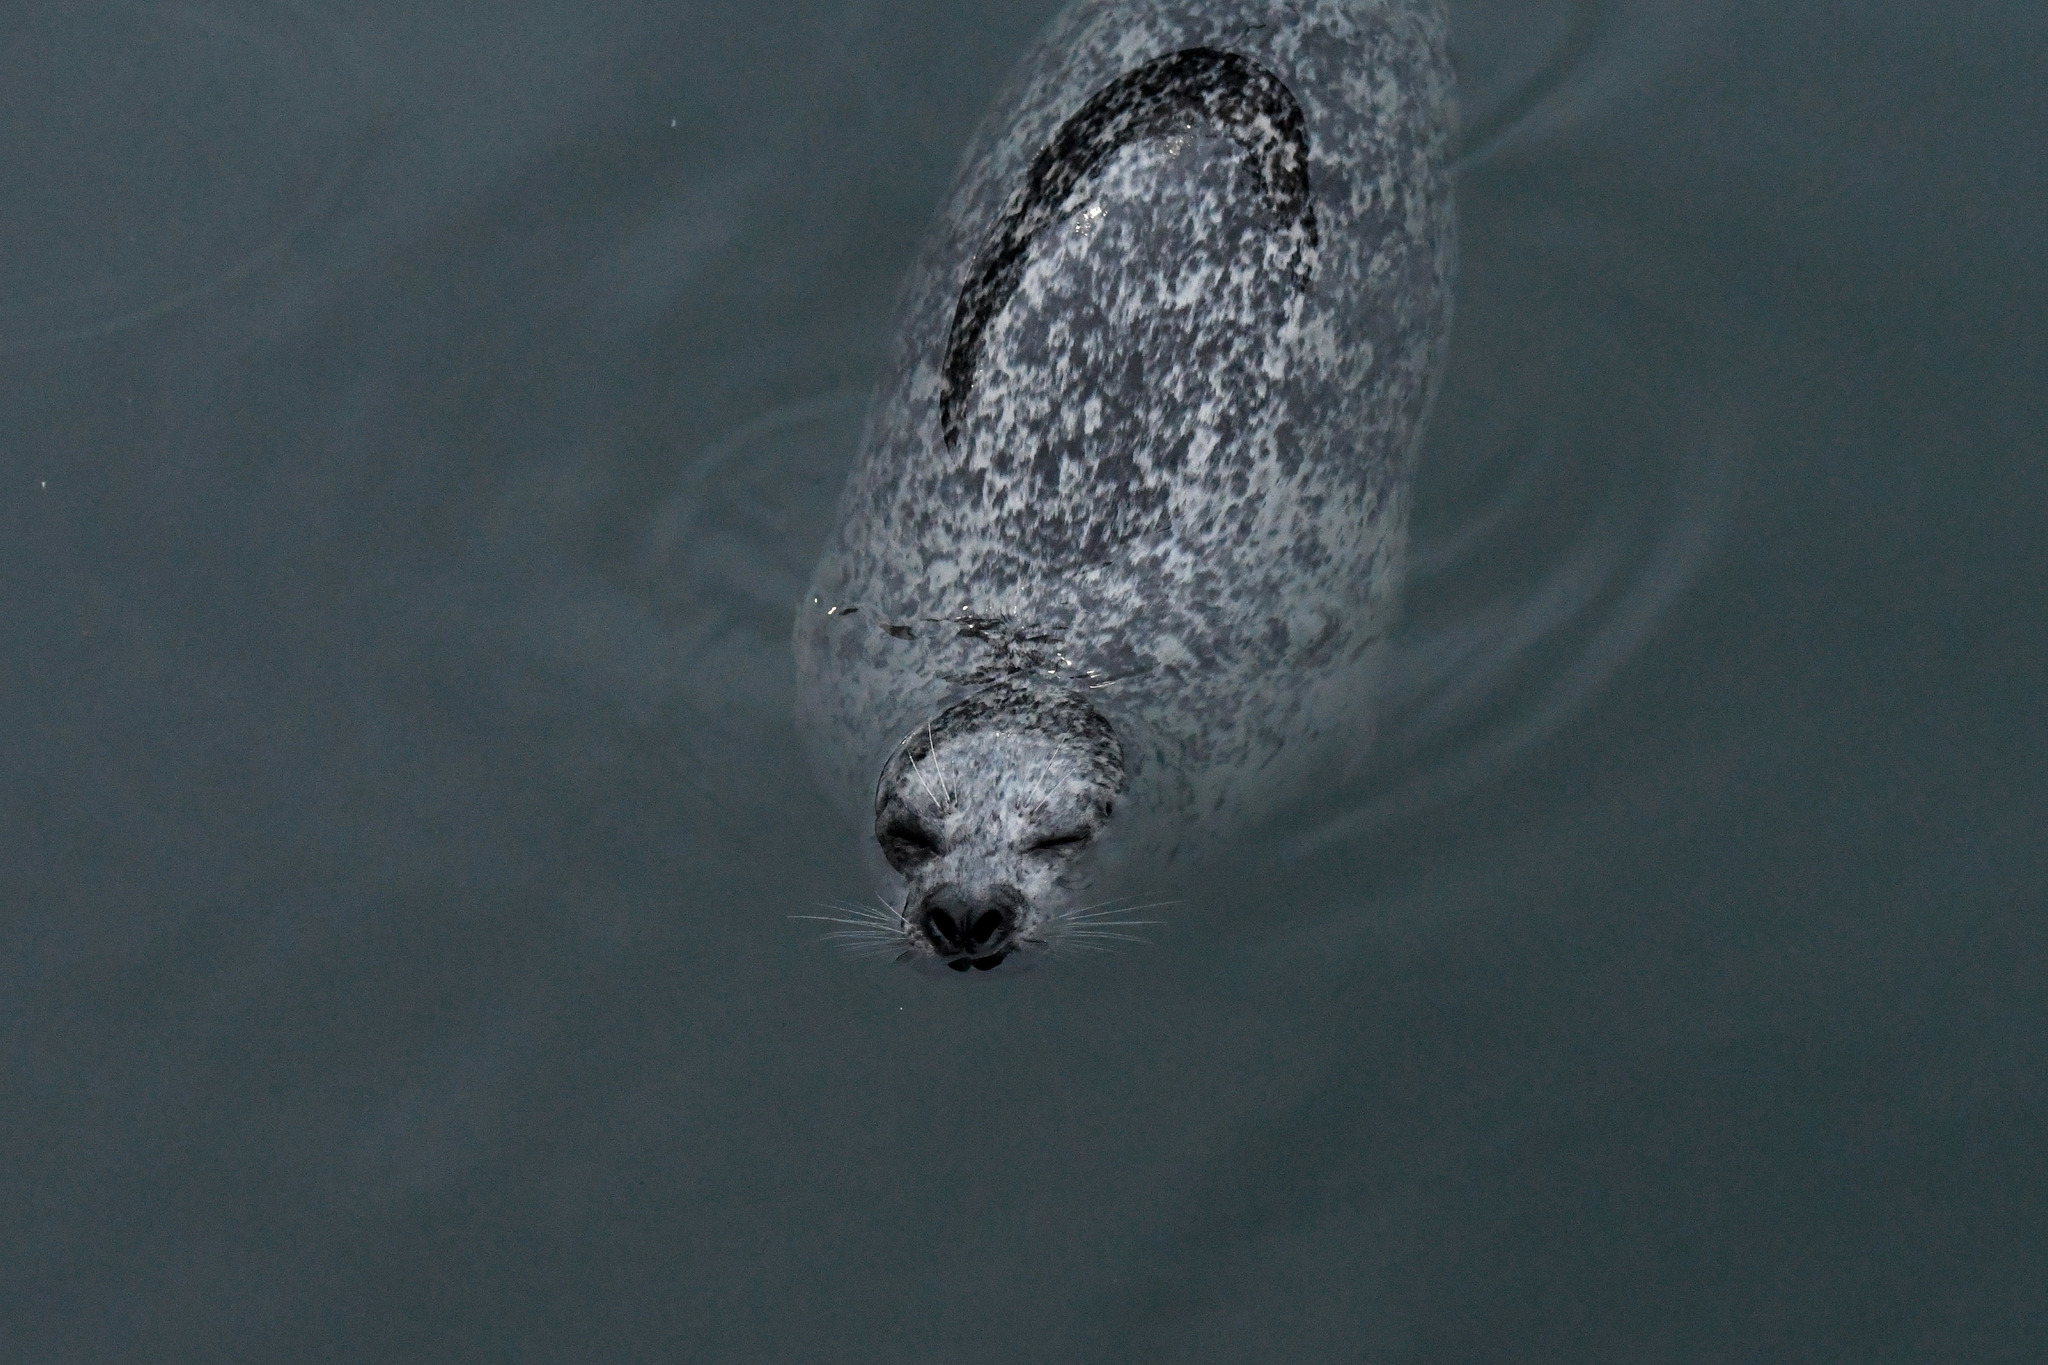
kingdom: Animalia
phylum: Chordata
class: Mammalia
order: Carnivora
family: Phocidae
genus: Phoca
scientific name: Phoca vitulina
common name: Harbor seal
